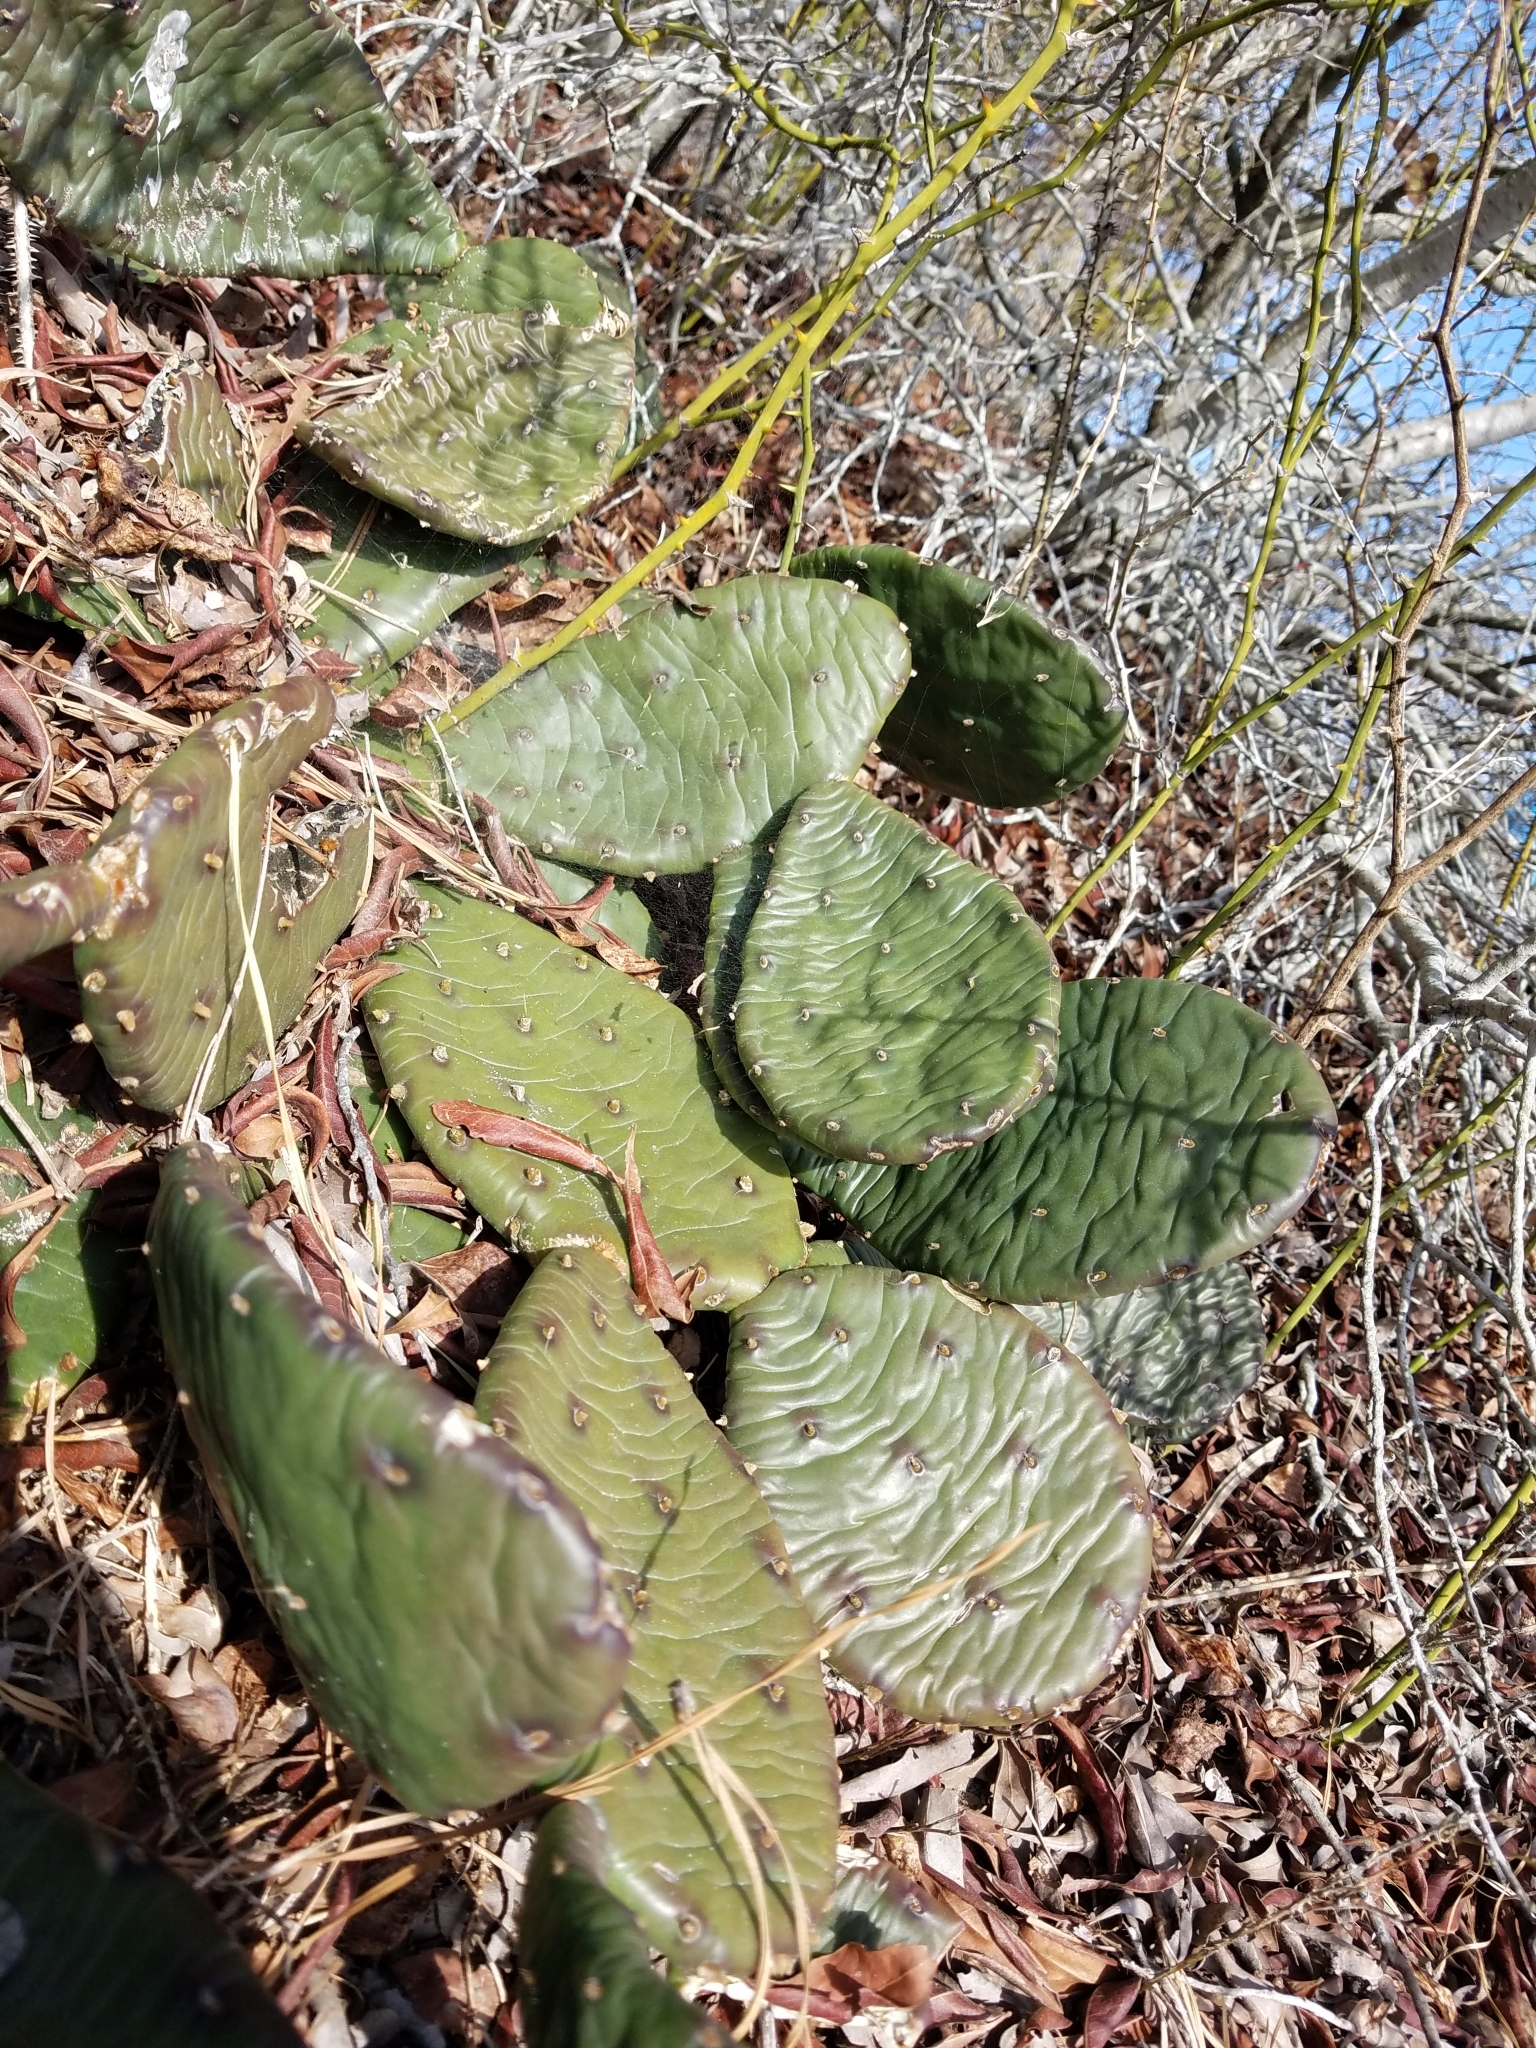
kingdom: Plantae
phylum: Tracheophyta
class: Magnoliopsida
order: Caryophyllales
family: Cactaceae
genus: Opuntia
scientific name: Opuntia humifusa
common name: Eastern prickly-pear
